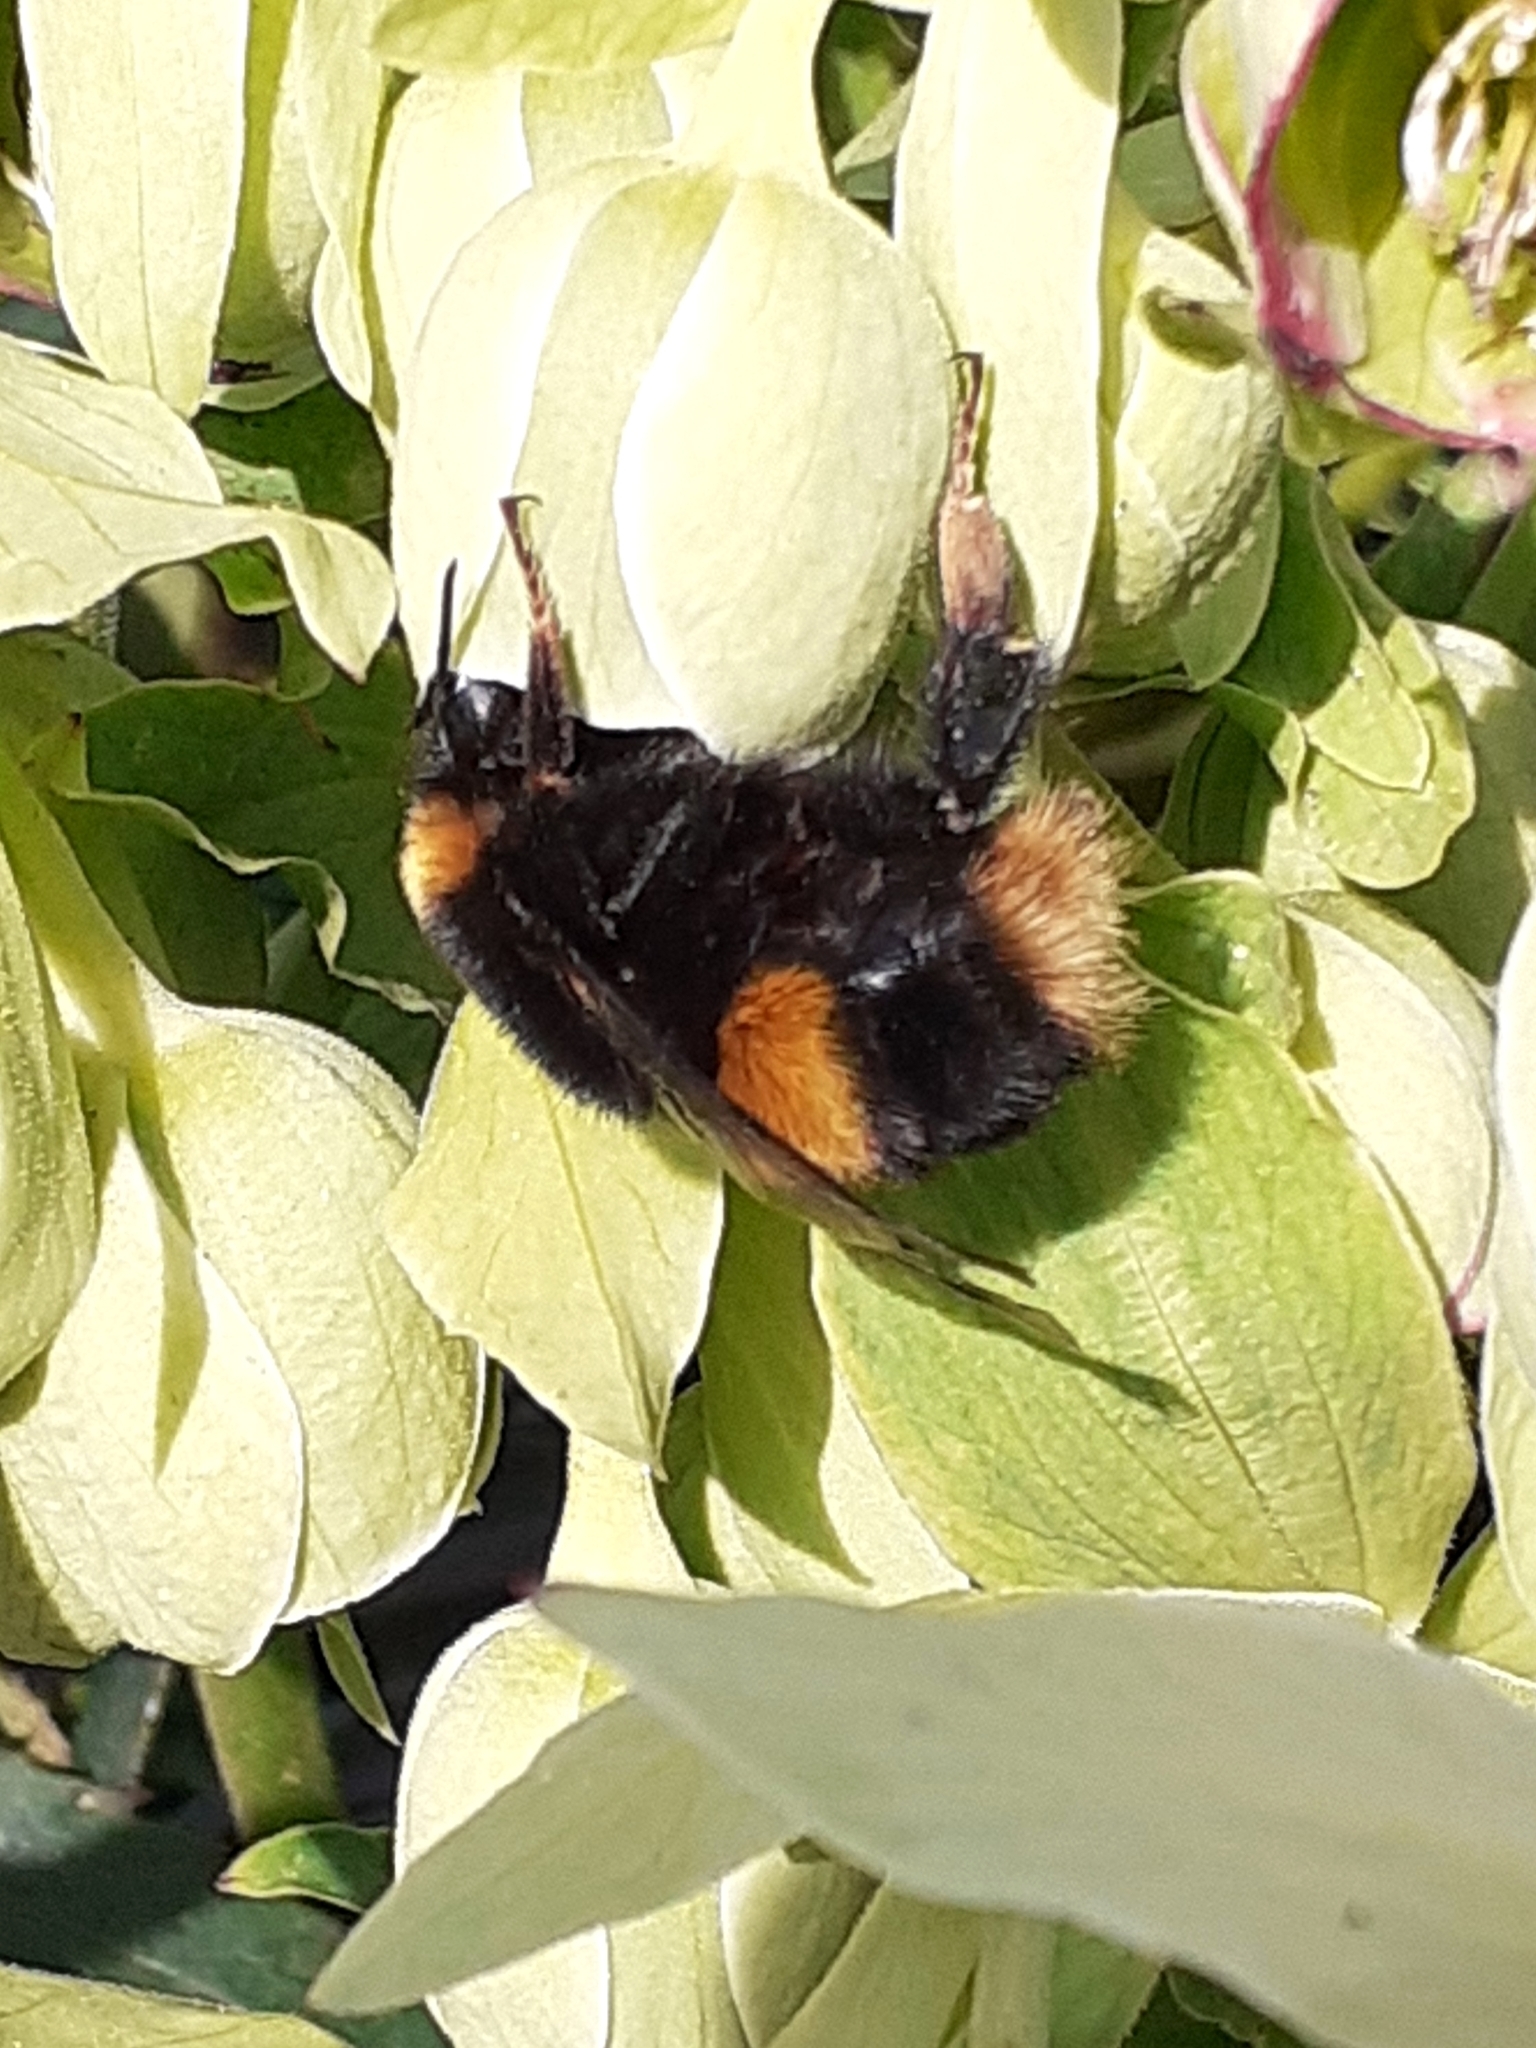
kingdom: Animalia
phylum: Arthropoda
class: Insecta
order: Hymenoptera
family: Apidae
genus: Bombus
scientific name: Bombus terrestris
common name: Buff-tailed bumblebee
